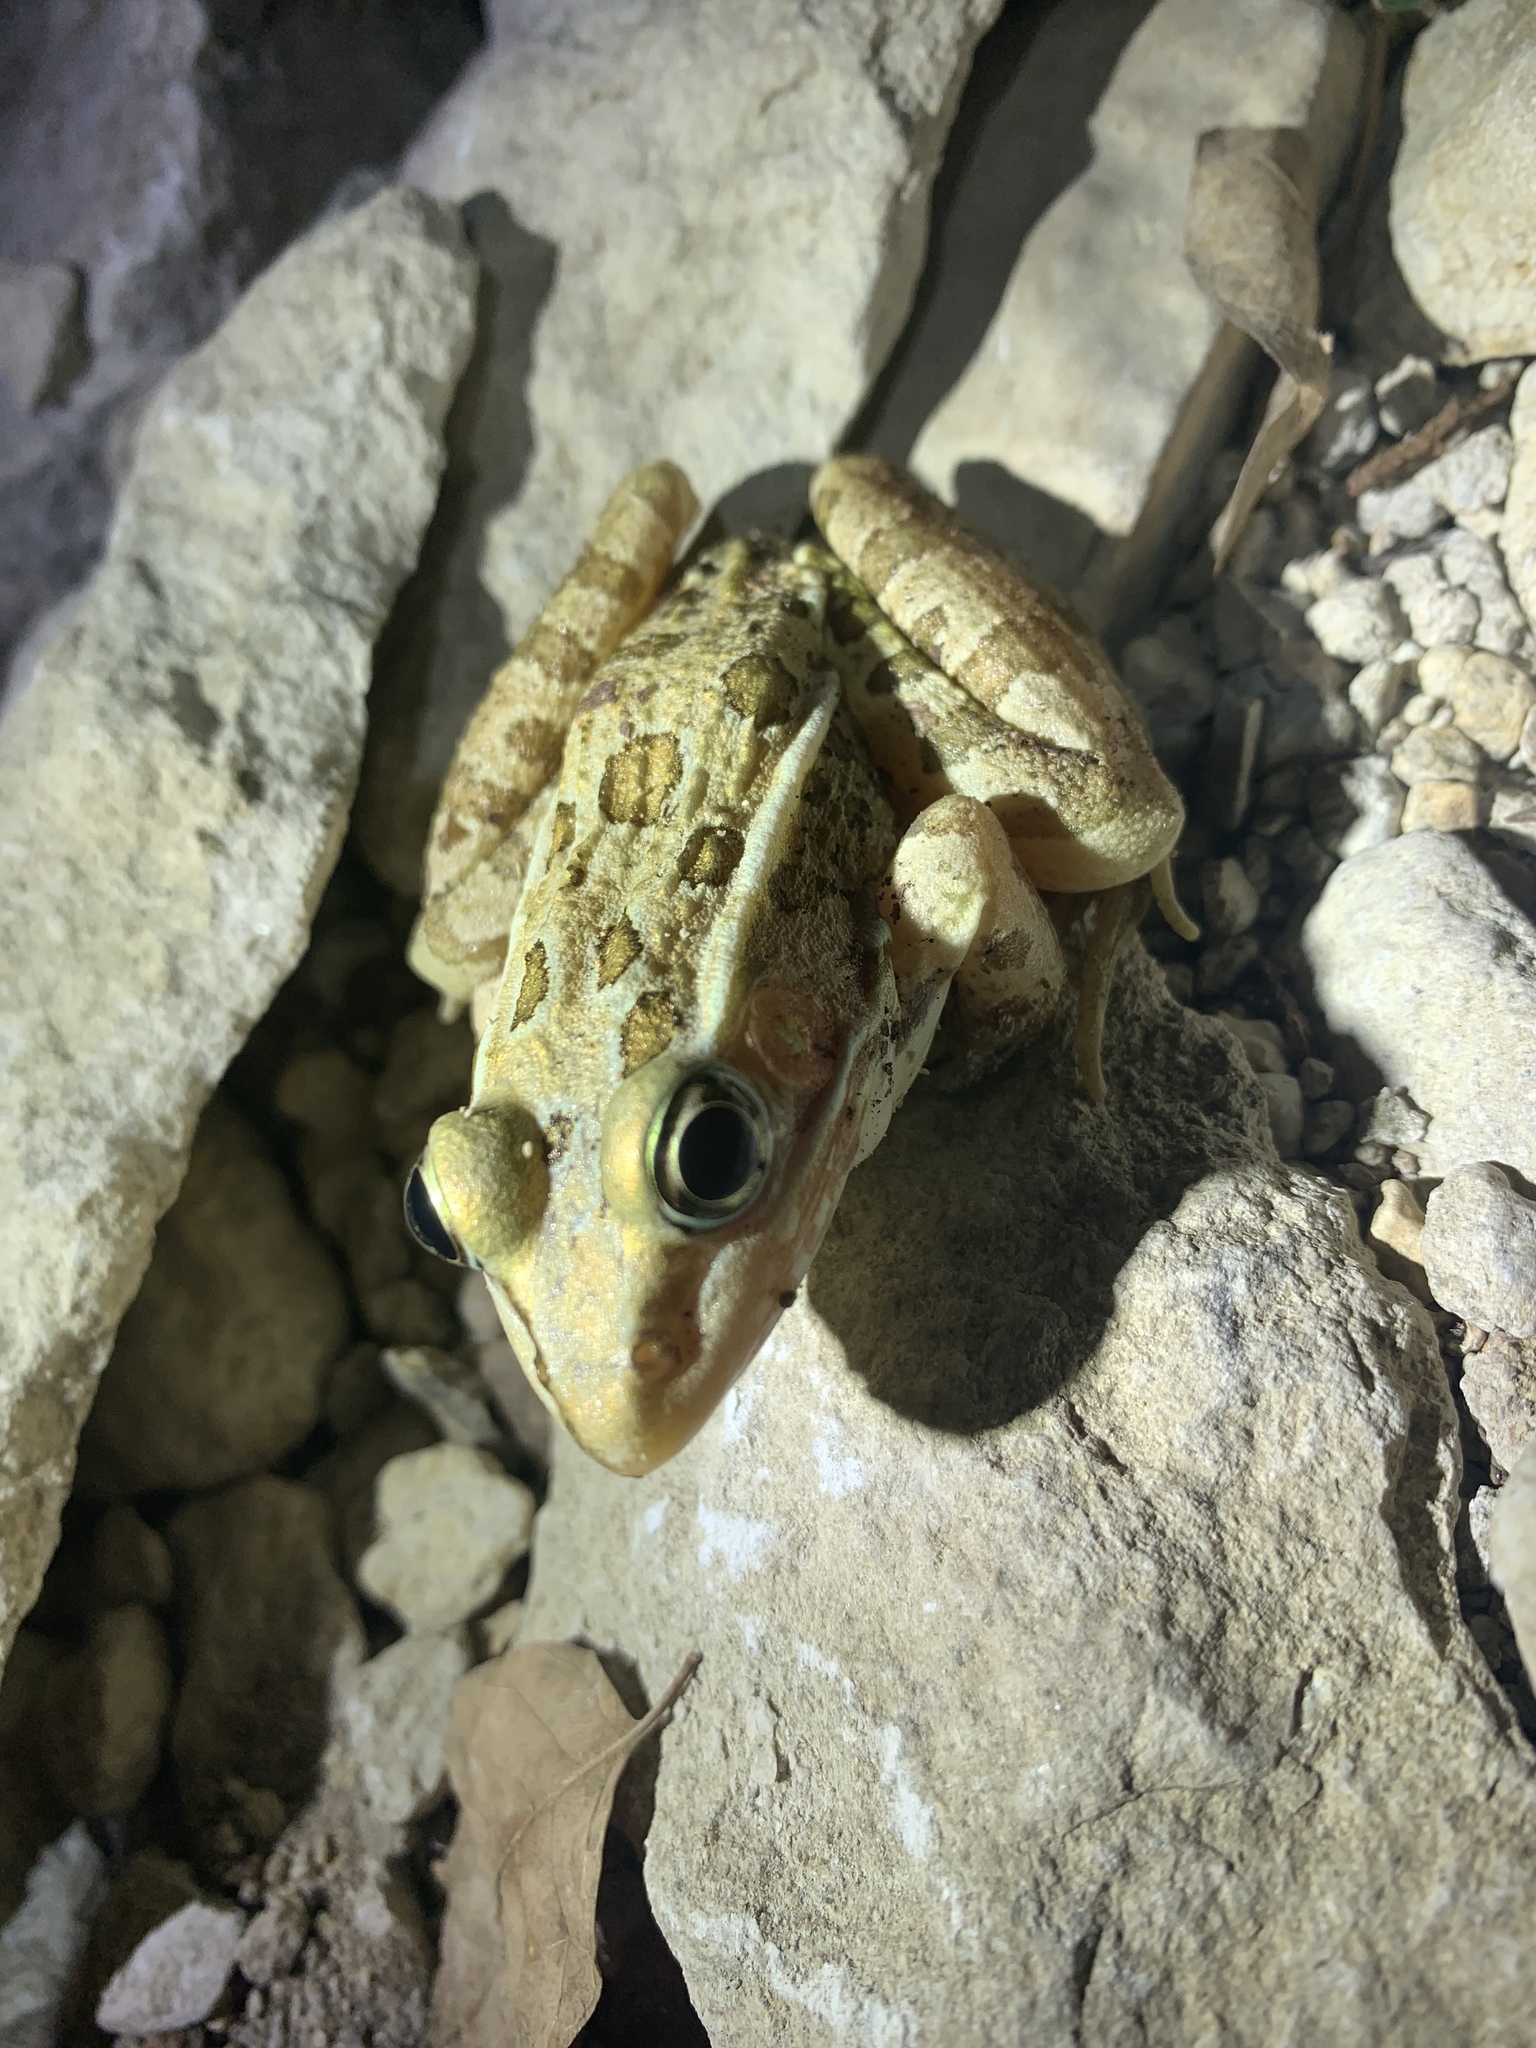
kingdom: Animalia
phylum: Chordata
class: Amphibia
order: Anura
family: Ranidae
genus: Lithobates
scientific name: Lithobates berlandieri
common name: Rio grande leopard frog
